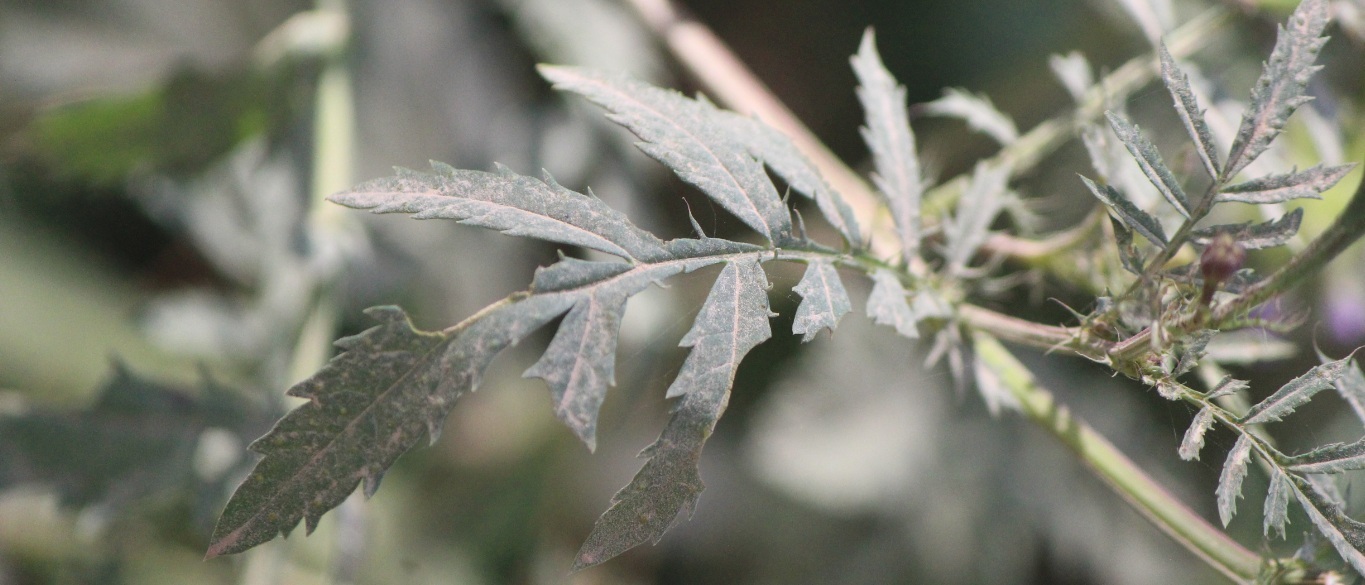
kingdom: Plantae
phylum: Tracheophyta
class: Magnoliopsida
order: Asterales
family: Asteraceae
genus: Tagetes
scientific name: Tagetes erecta
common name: African marigold
